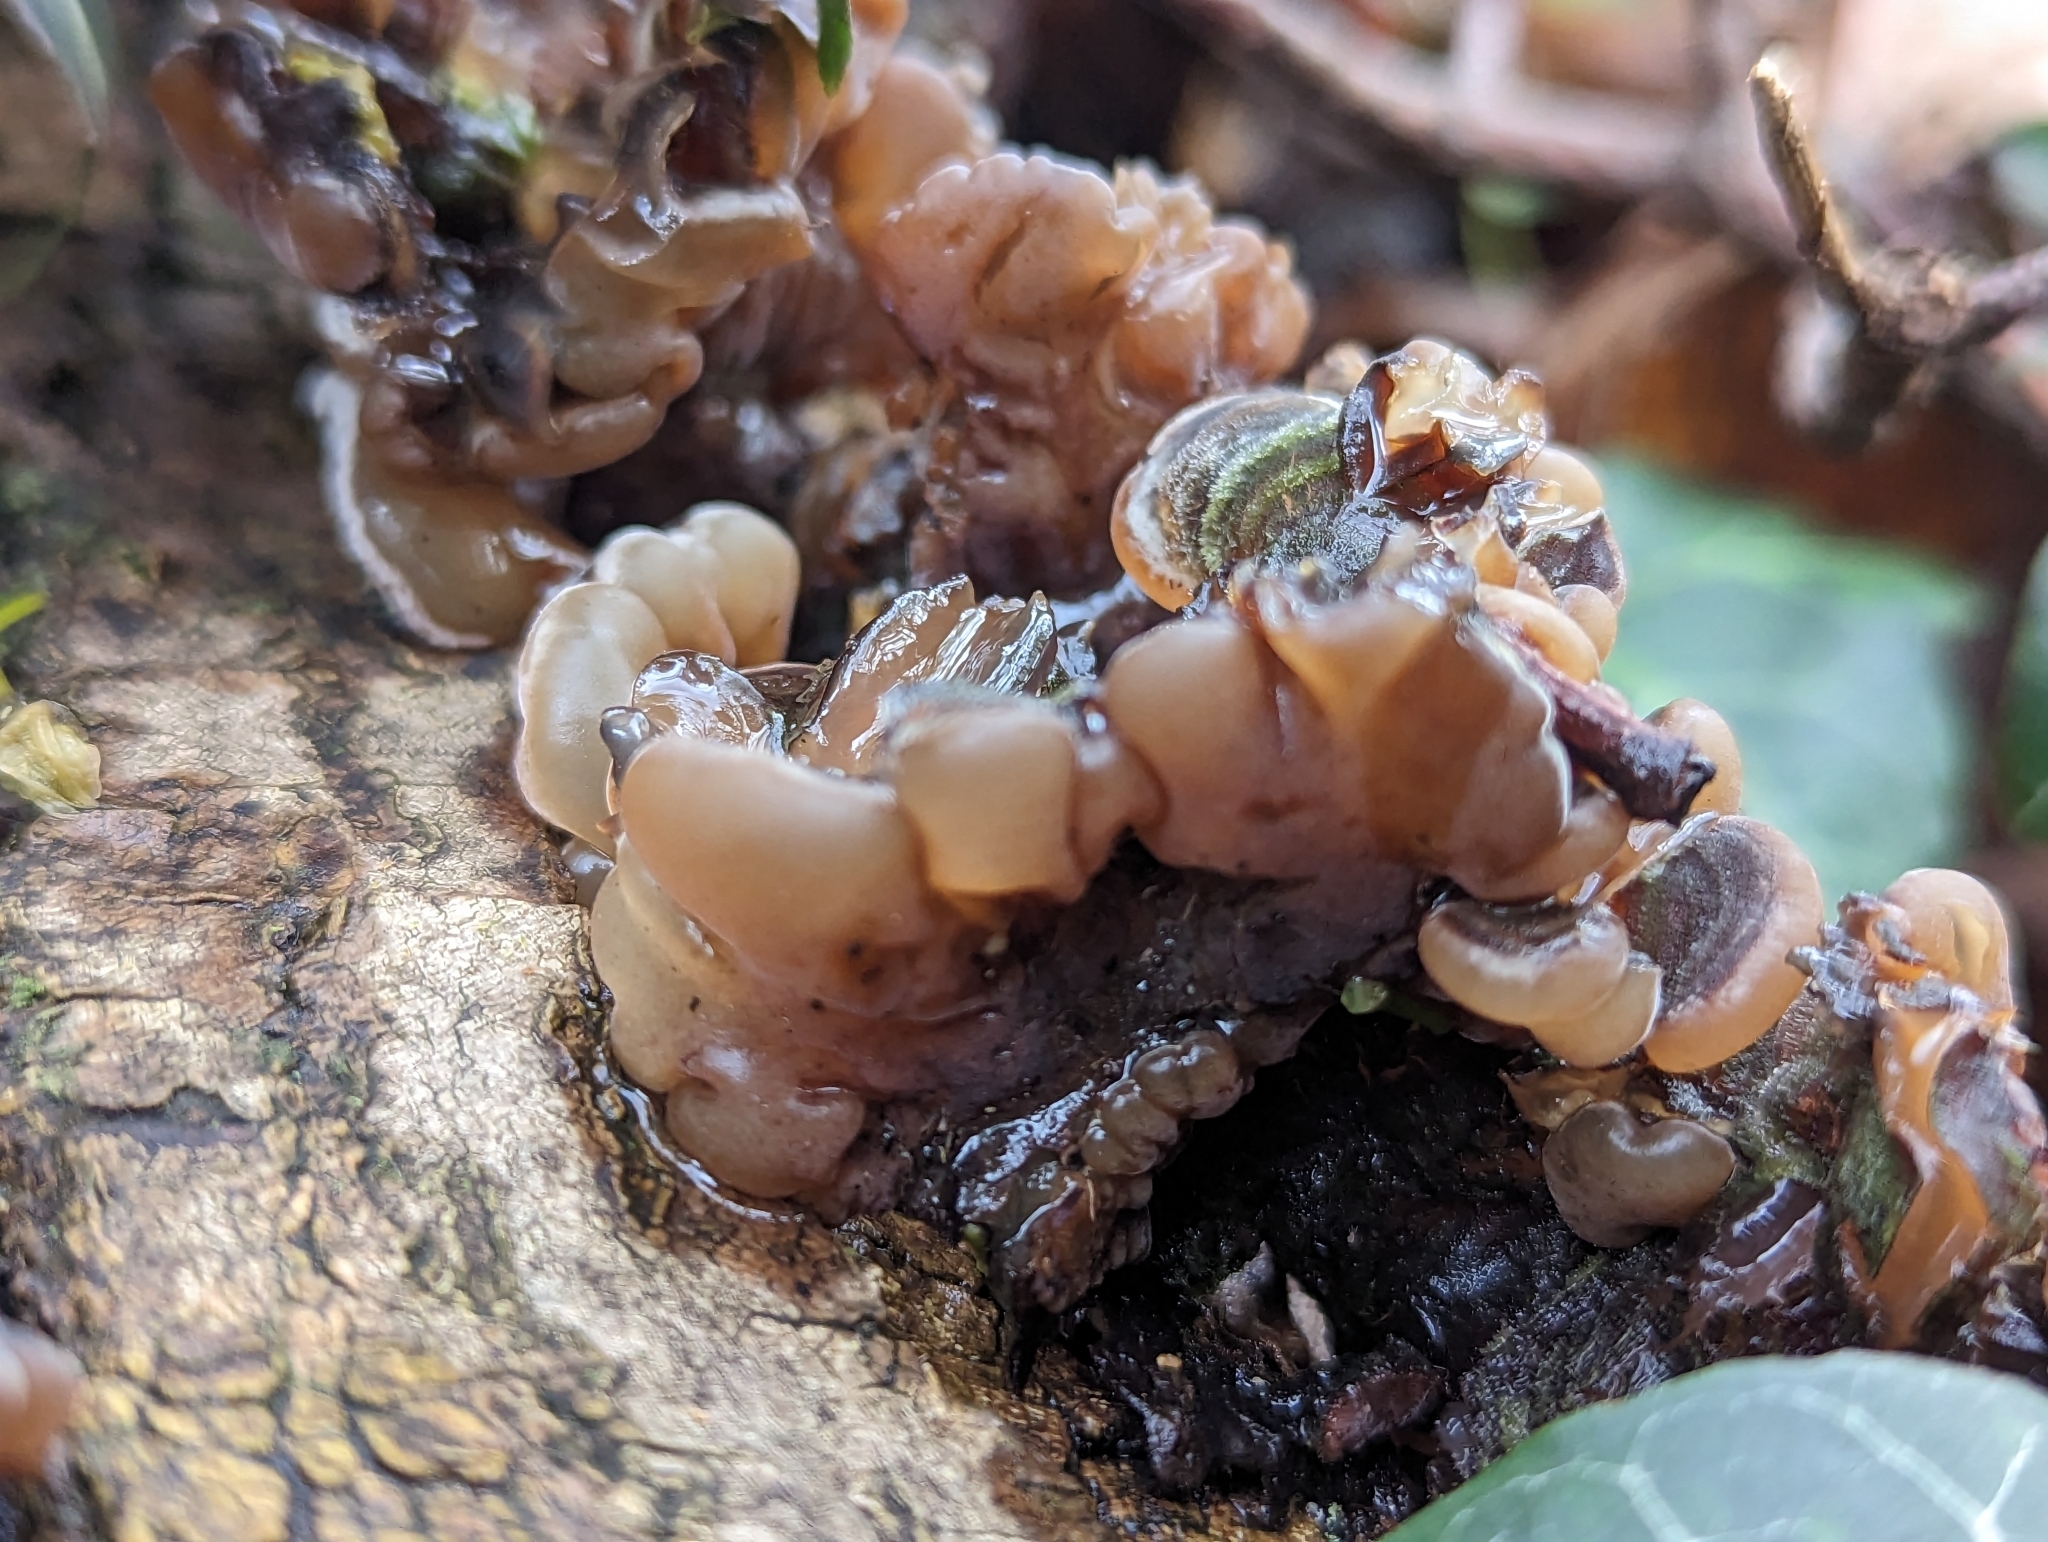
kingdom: Fungi
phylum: Basidiomycota
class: Agaricomycetes
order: Auriculariales
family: Auriculariaceae
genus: Auricularia
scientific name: Auricularia mesenterica
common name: Tripe fungus
